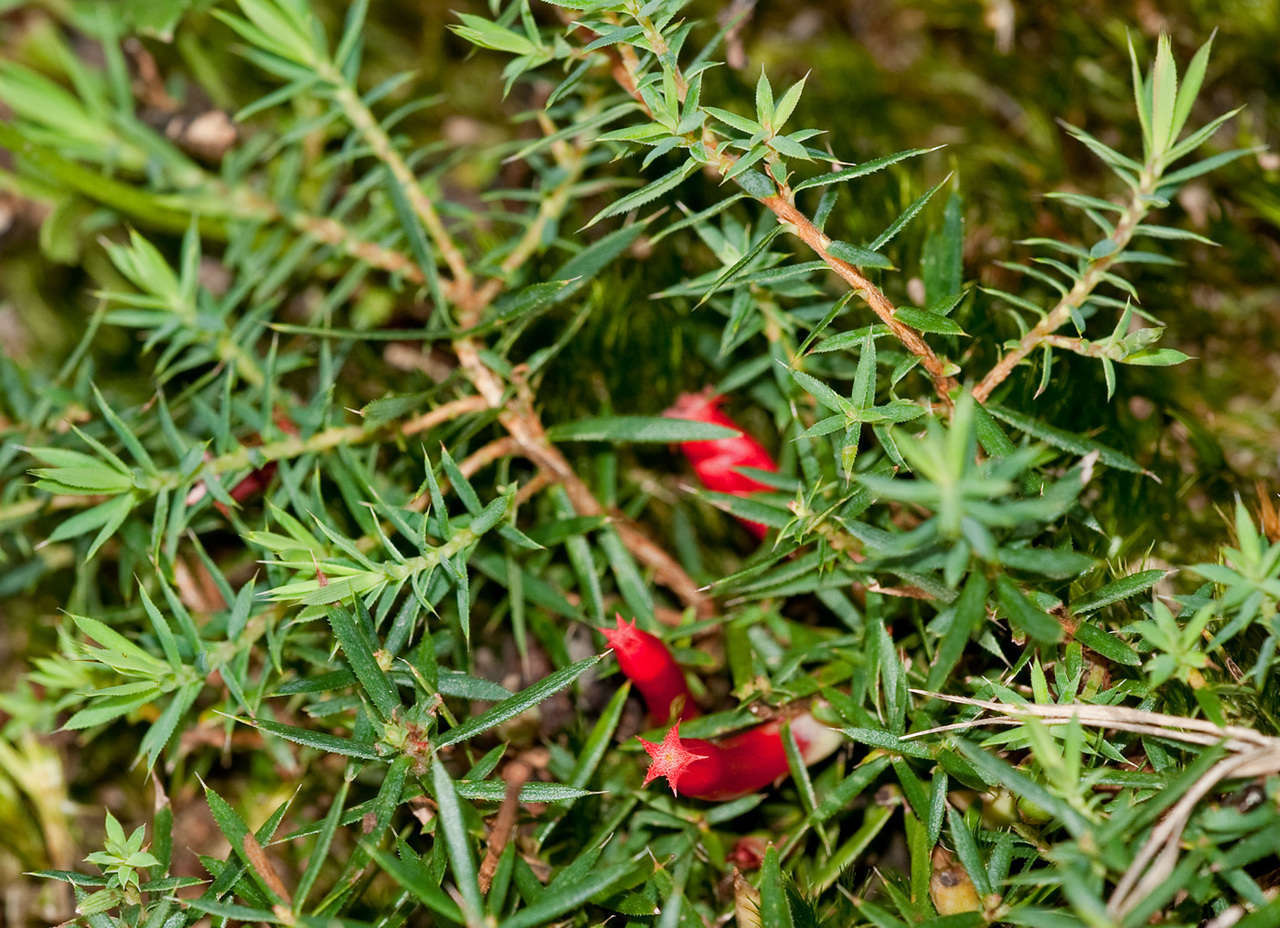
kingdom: Plantae
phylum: Tracheophyta
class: Magnoliopsida
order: Ericales
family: Ericaceae
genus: Styphelia
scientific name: Styphelia humifusa
